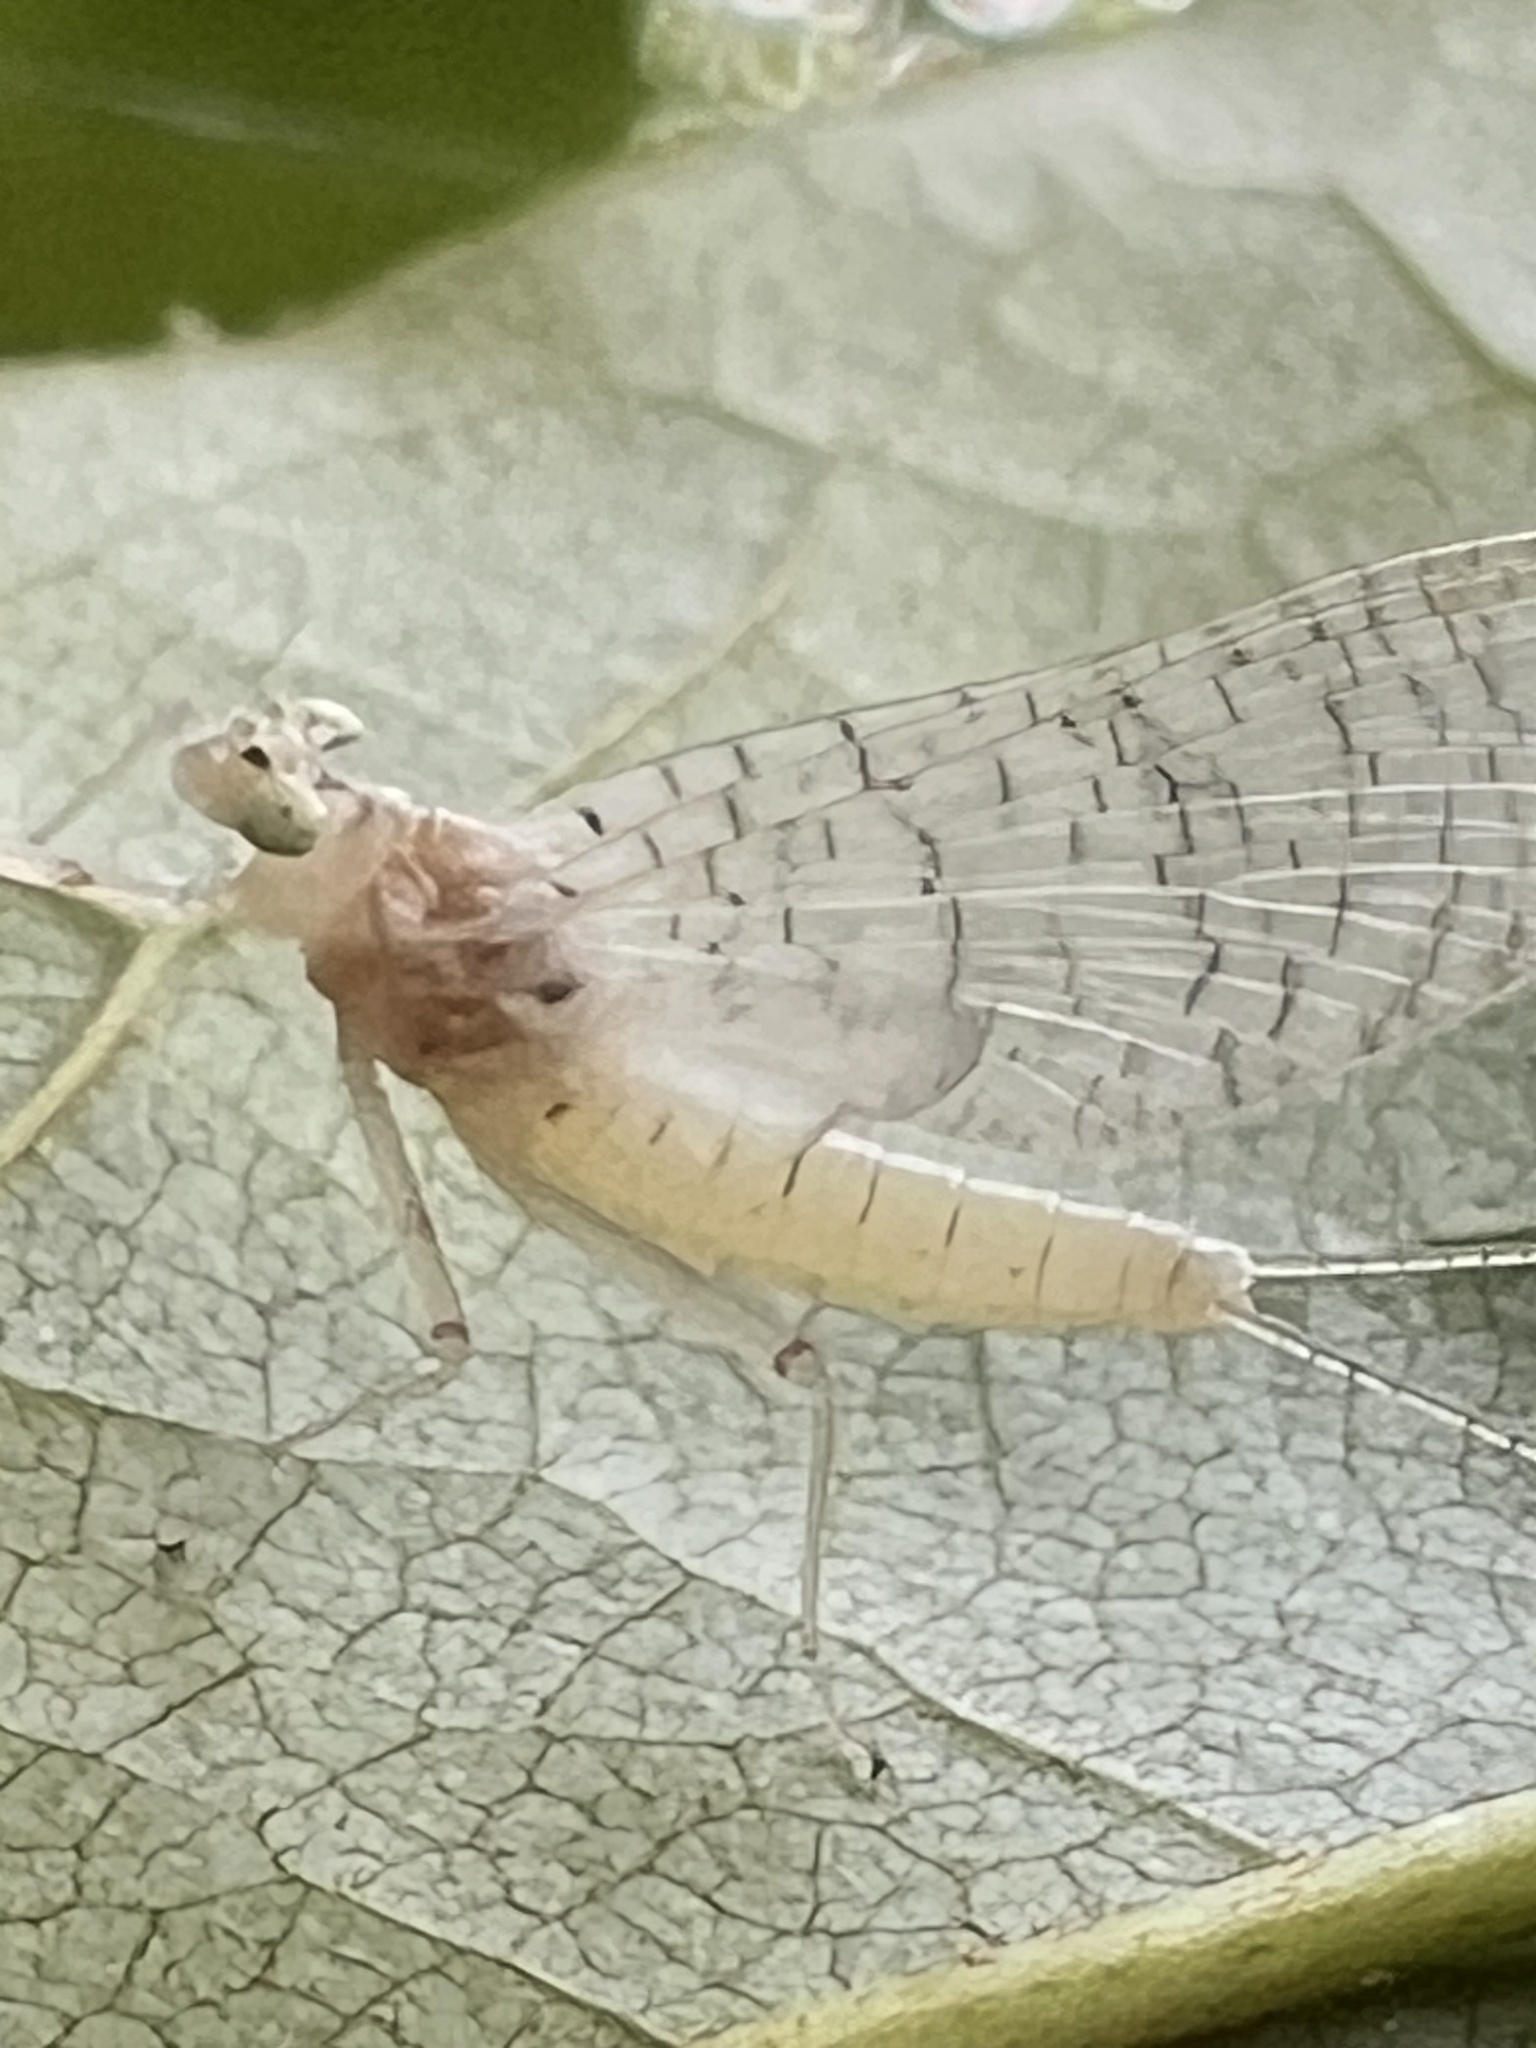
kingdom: Animalia
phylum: Arthropoda
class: Insecta
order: Ephemeroptera
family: Heptageniidae
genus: Maccaffertium
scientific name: Maccaffertium mexicanum
